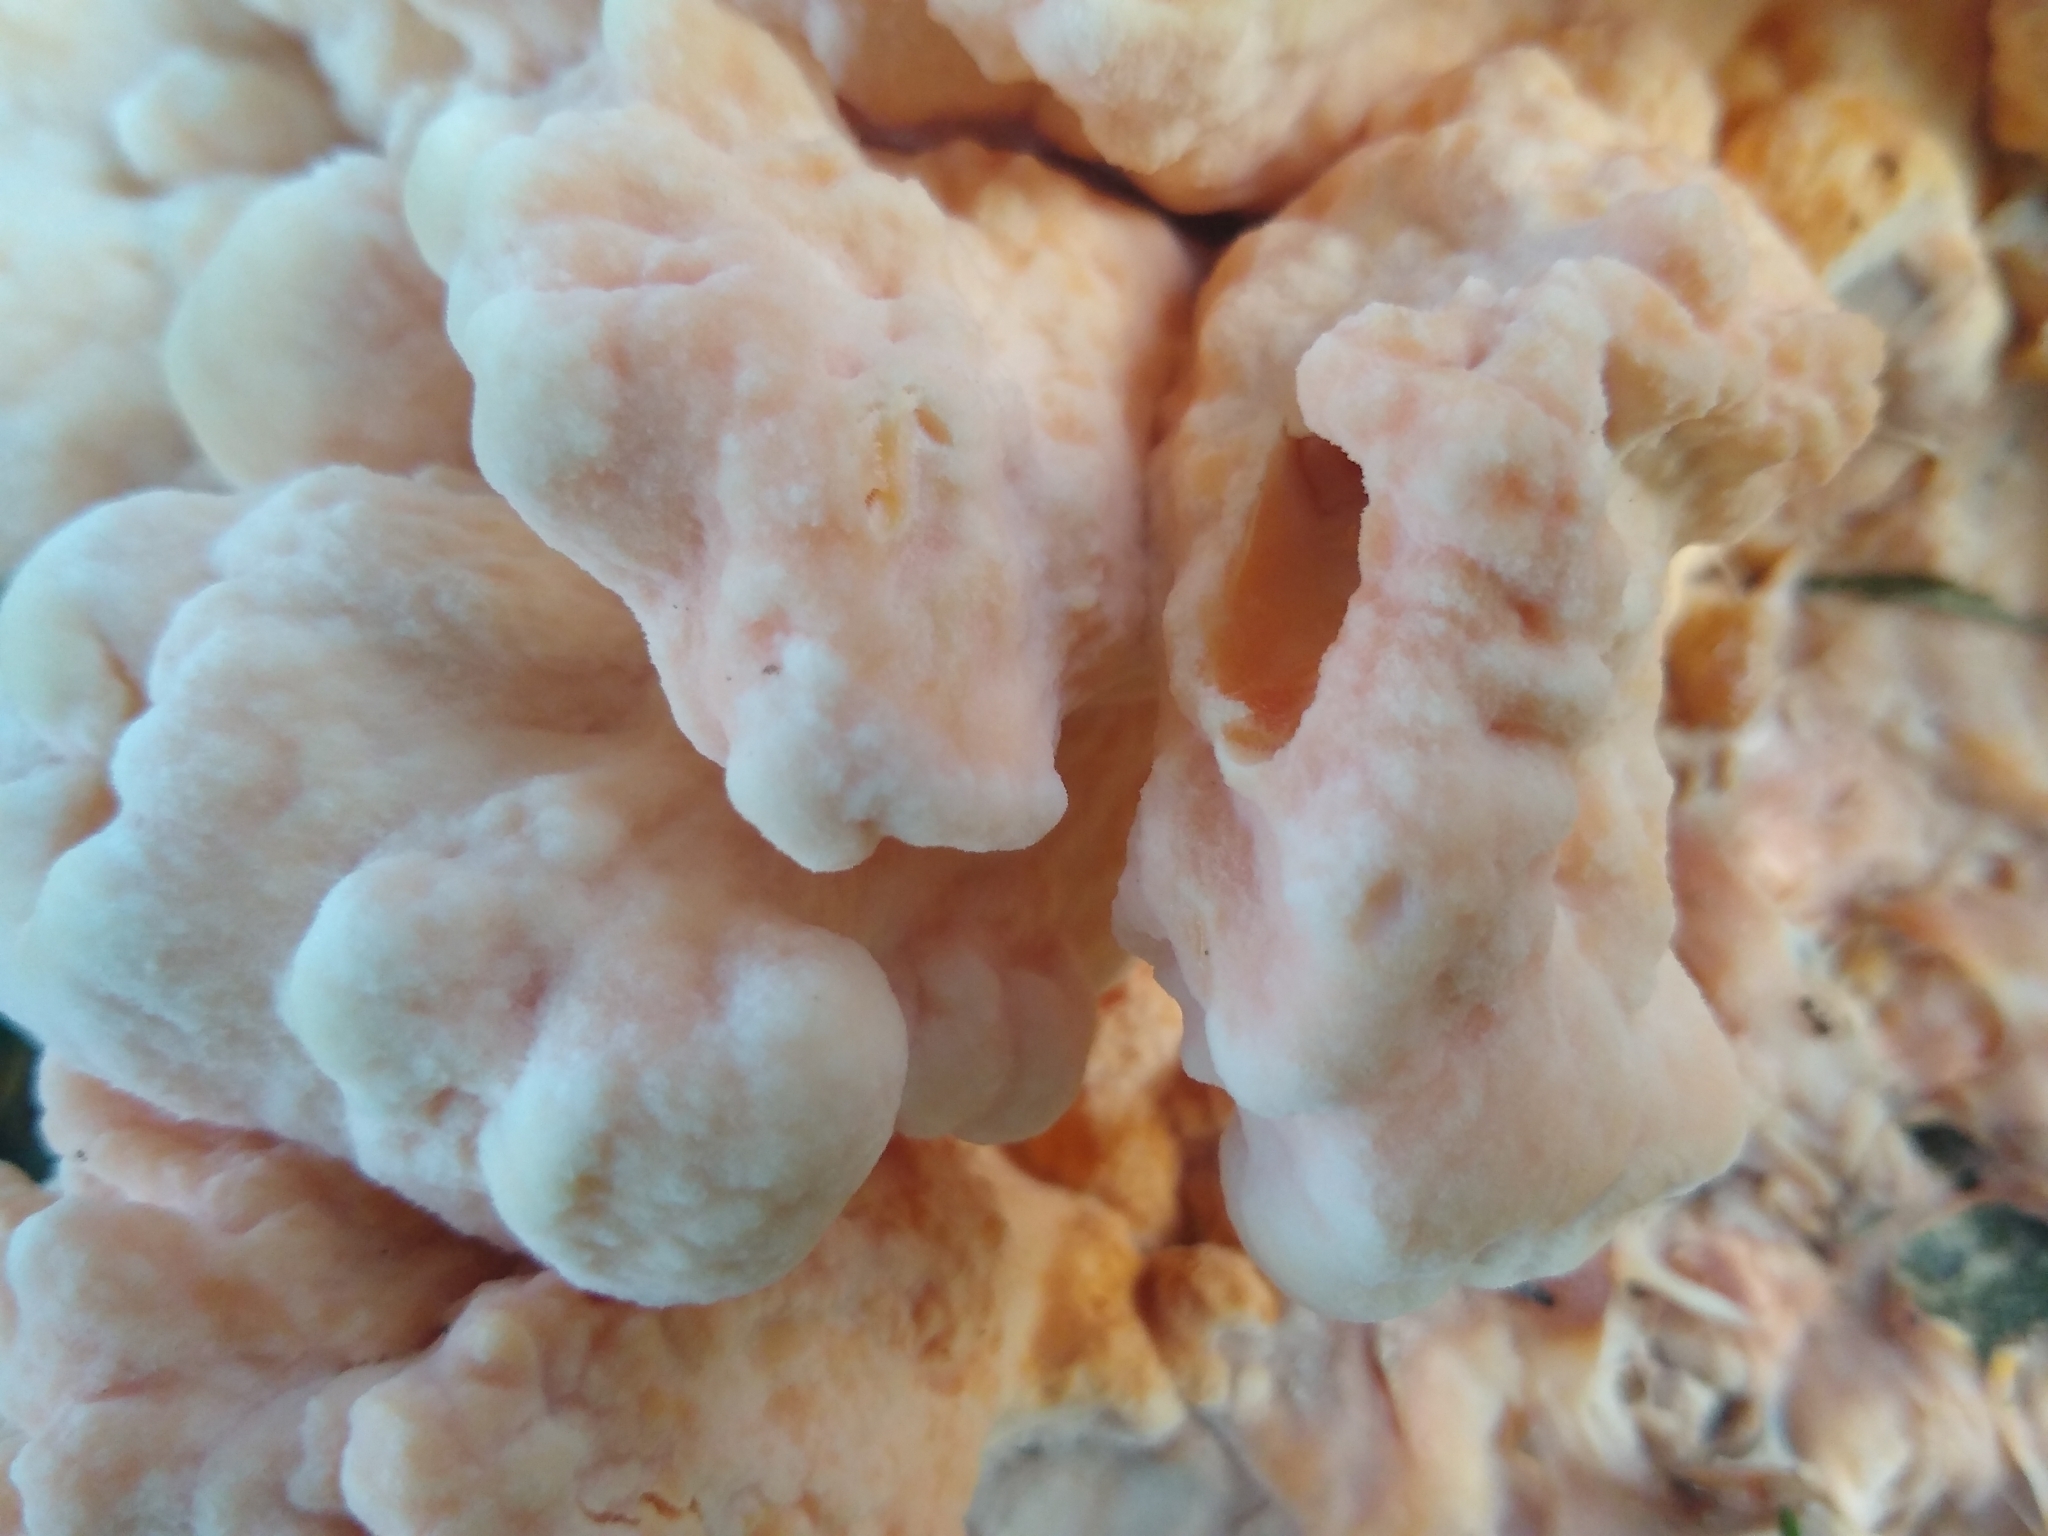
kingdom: Fungi
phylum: Basidiomycota
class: Agaricomycetes
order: Polyporales
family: Laetiporaceae
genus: Laetiporus
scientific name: Laetiporus sulphureus
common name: Chicken of the woods
